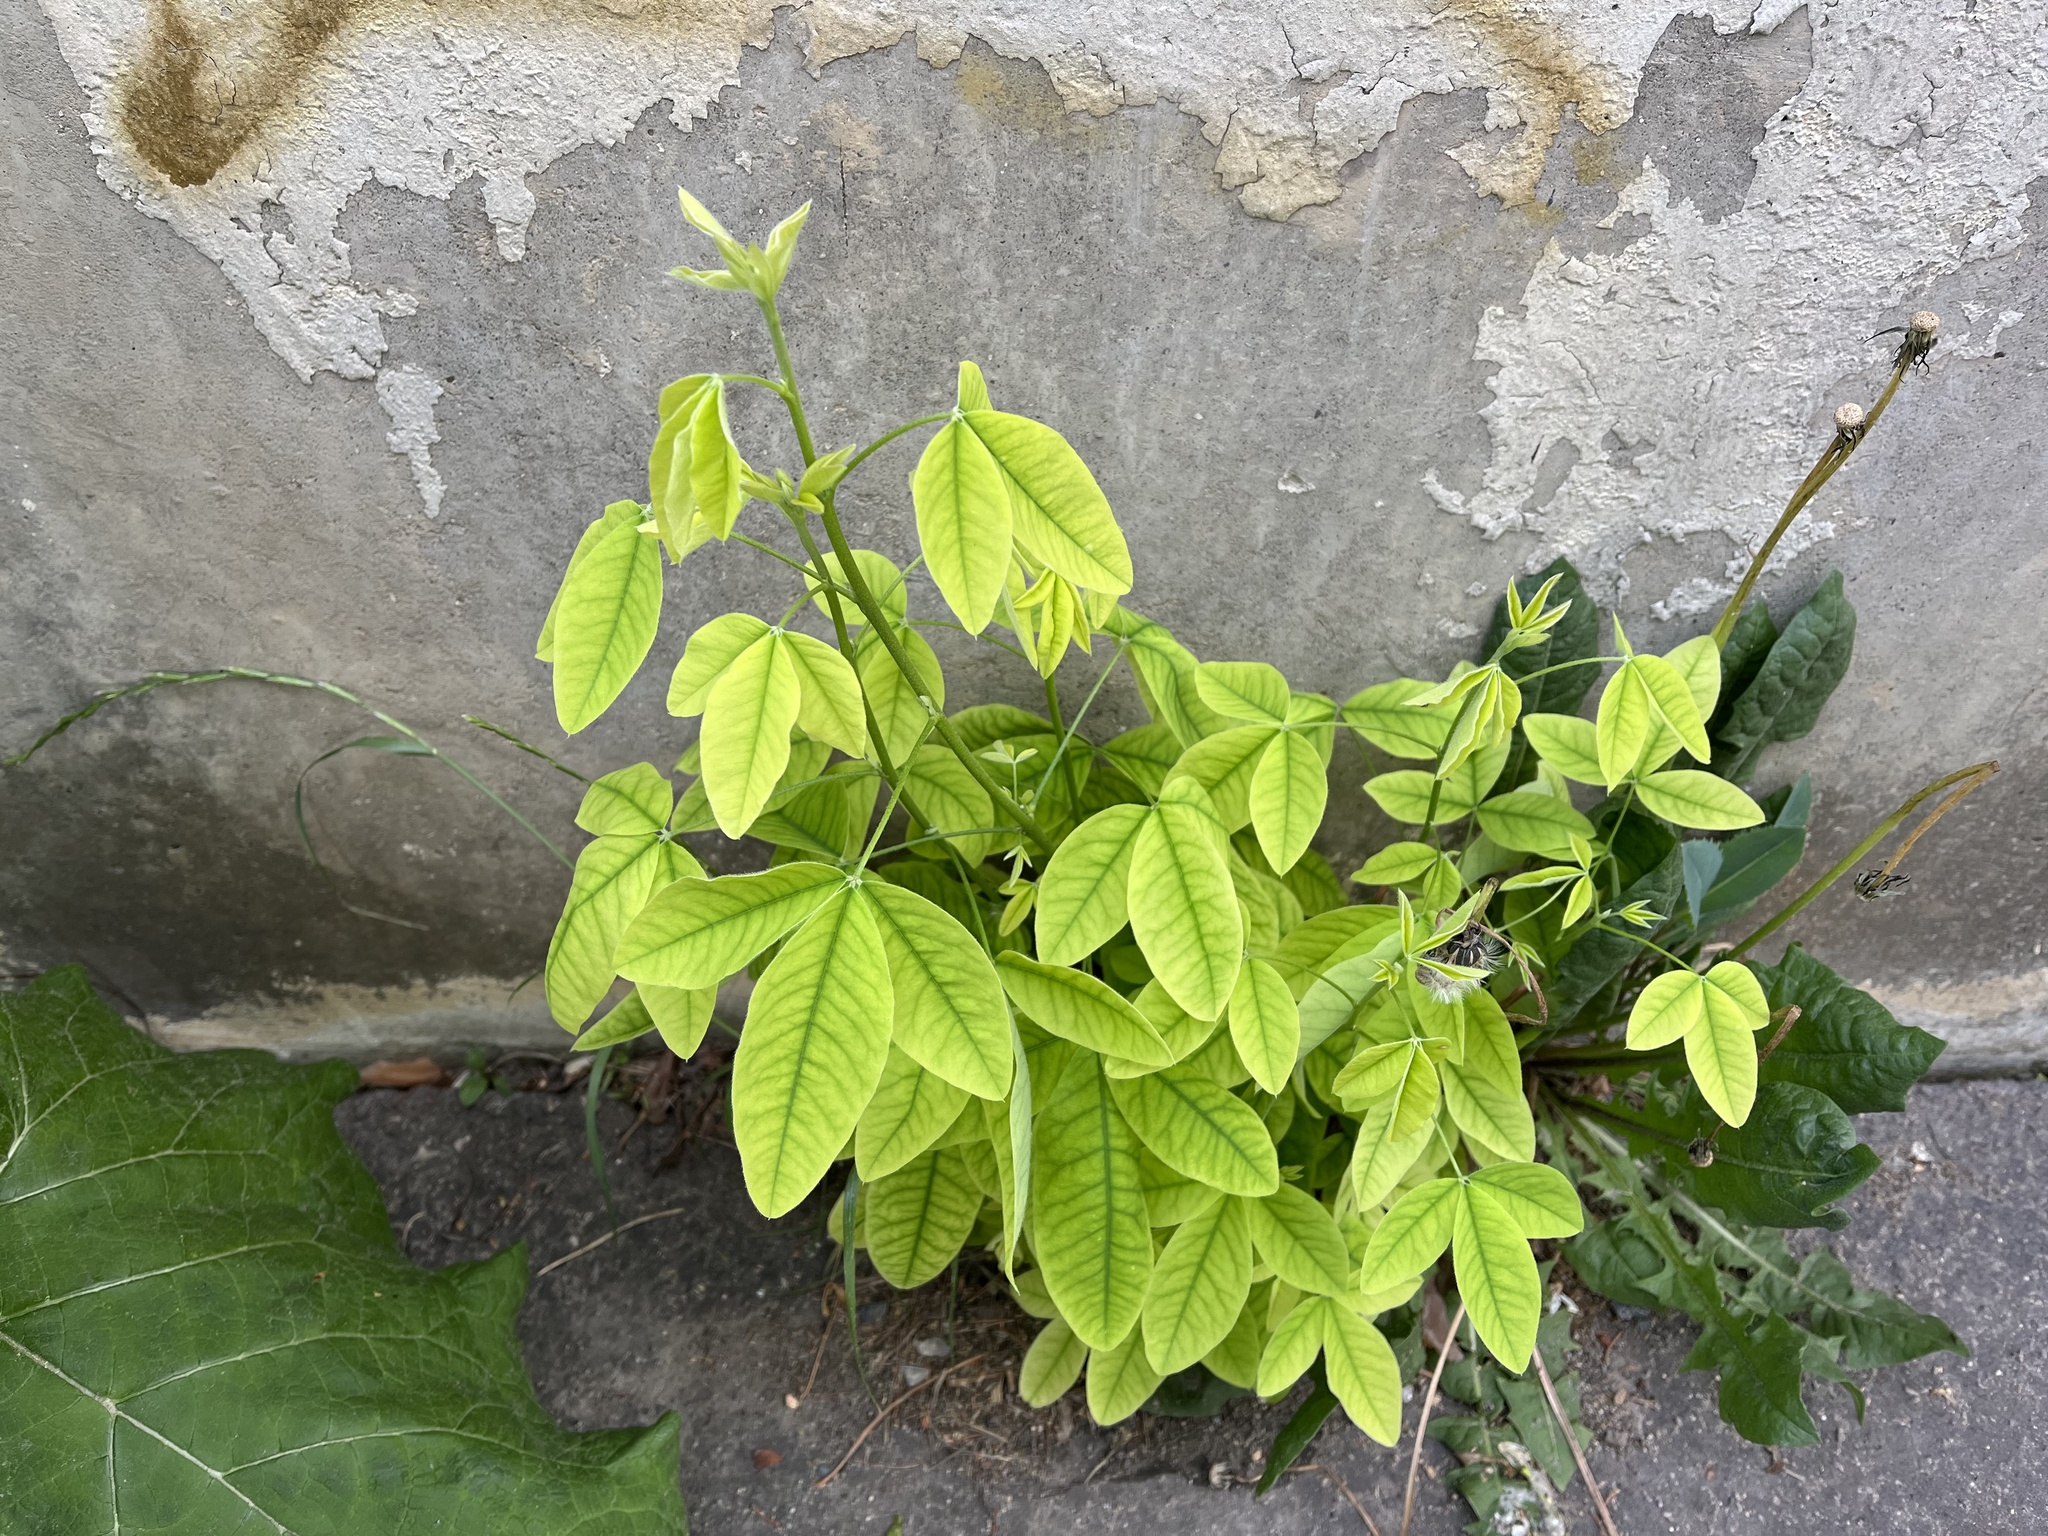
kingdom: Plantae
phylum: Tracheophyta
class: Magnoliopsida
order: Fabales
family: Fabaceae
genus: Laburnum
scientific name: Laburnum anagyroides
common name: Laburnum
